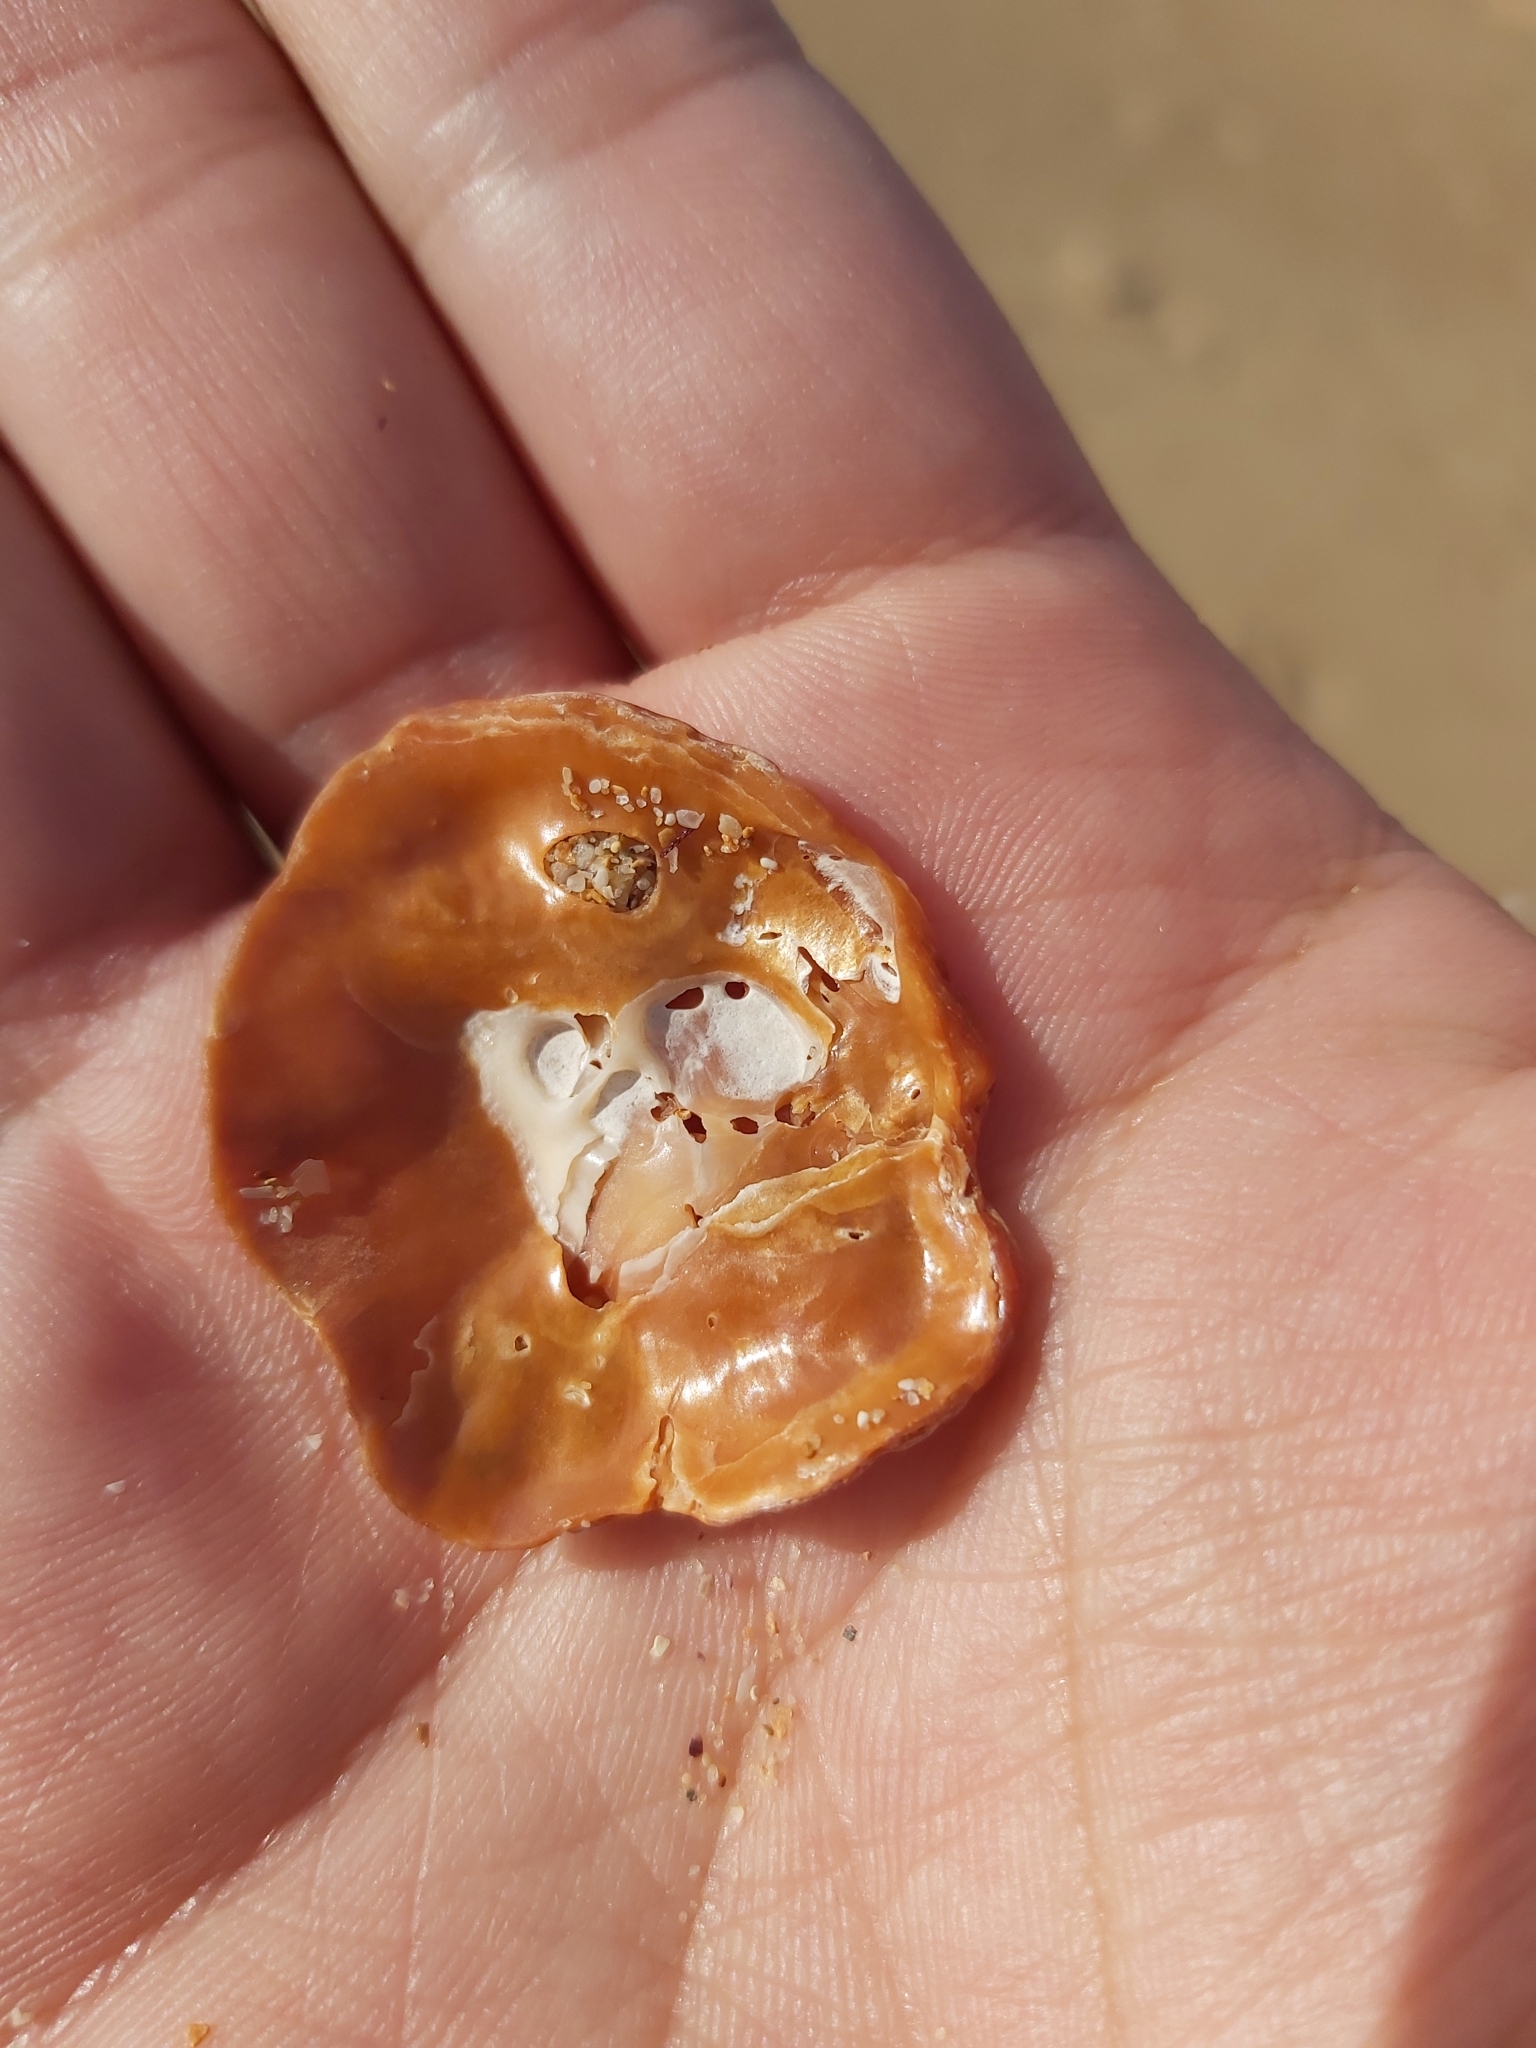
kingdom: Animalia
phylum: Mollusca
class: Bivalvia
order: Pectinida
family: Anomiidae
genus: Anomia
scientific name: Anomia trigonopsis
